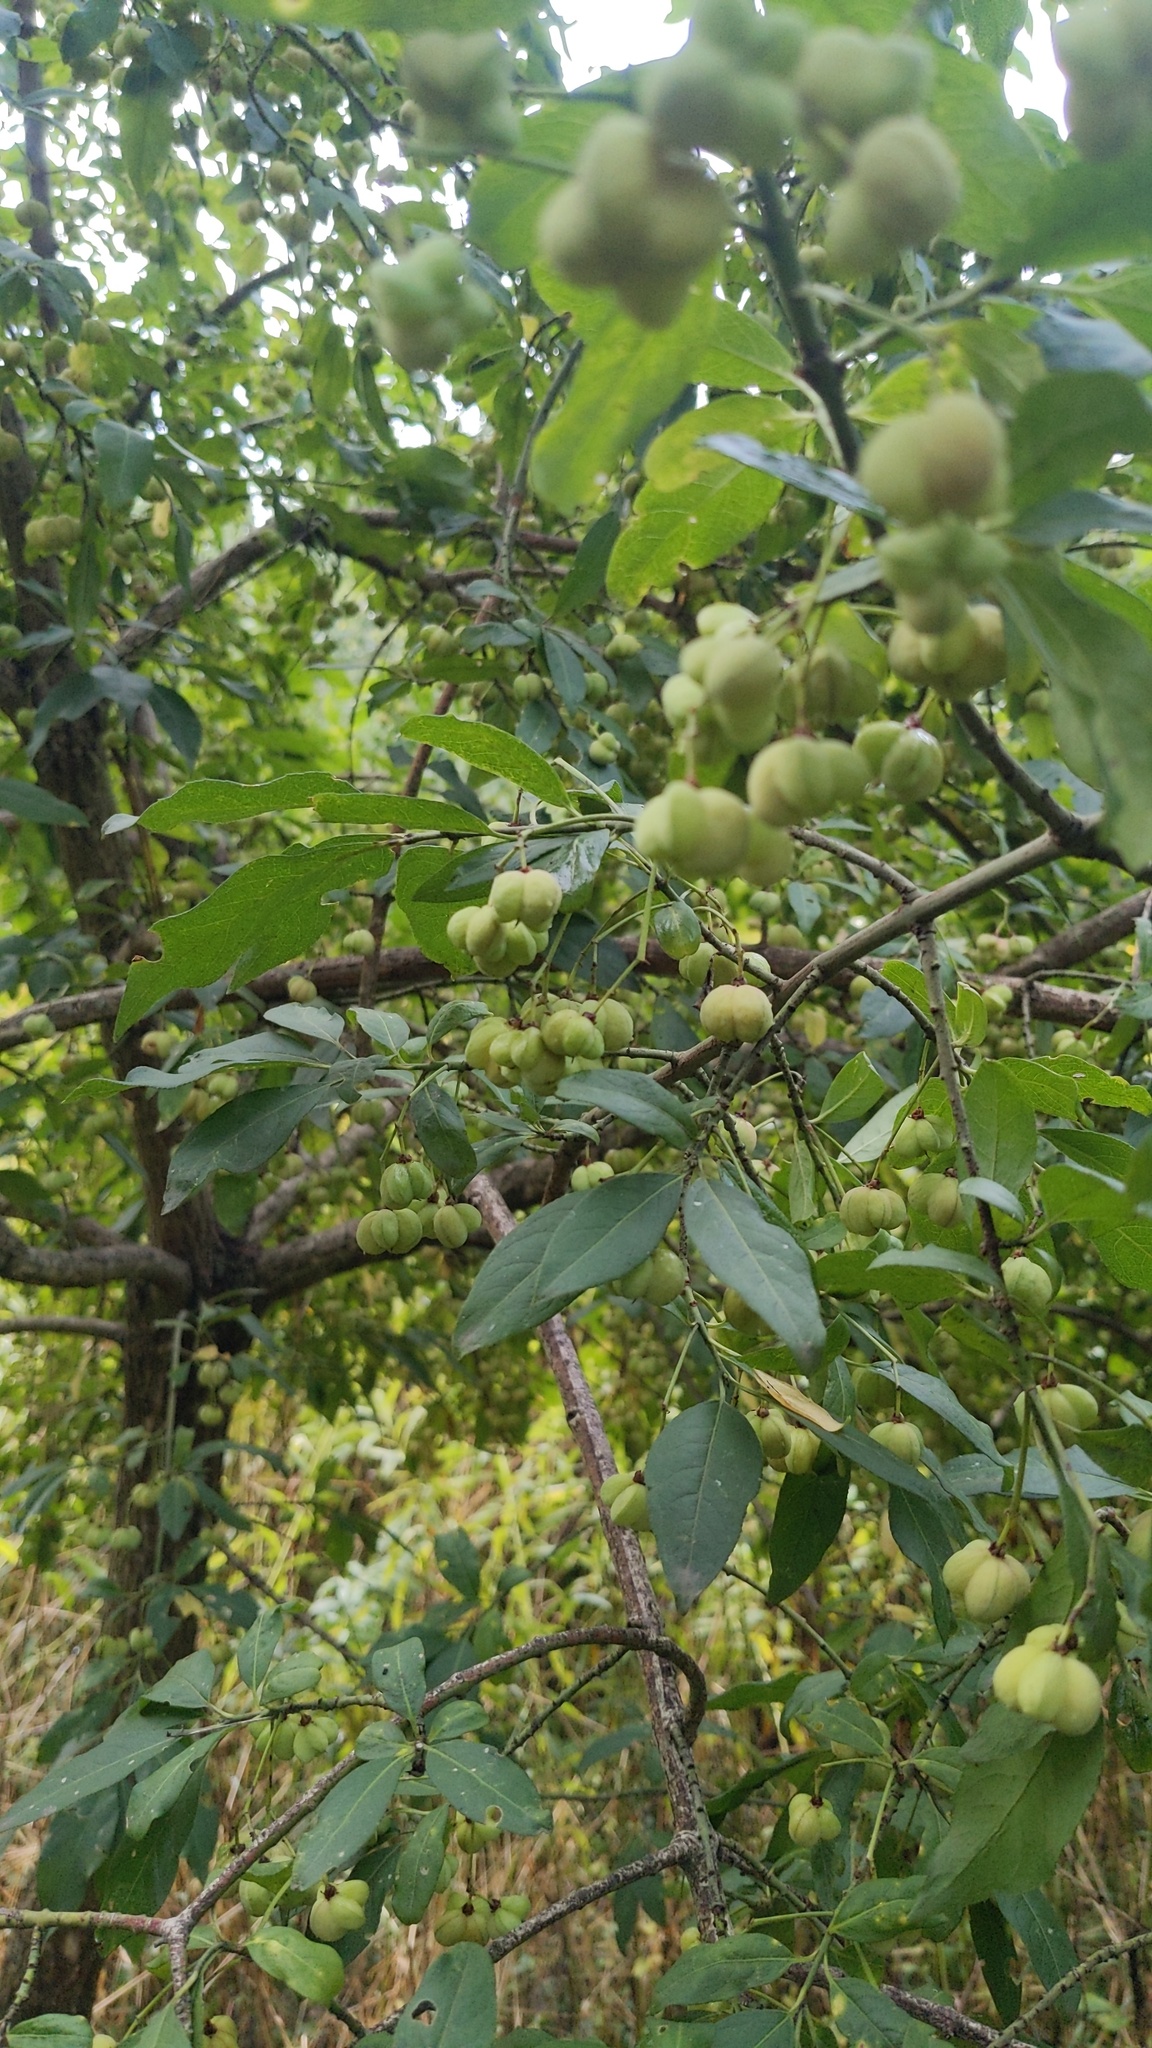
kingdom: Plantae
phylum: Tracheophyta
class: Magnoliopsida
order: Celastrales
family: Celastraceae
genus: Euonymus
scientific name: Euonymus europaeus
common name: Spindle
